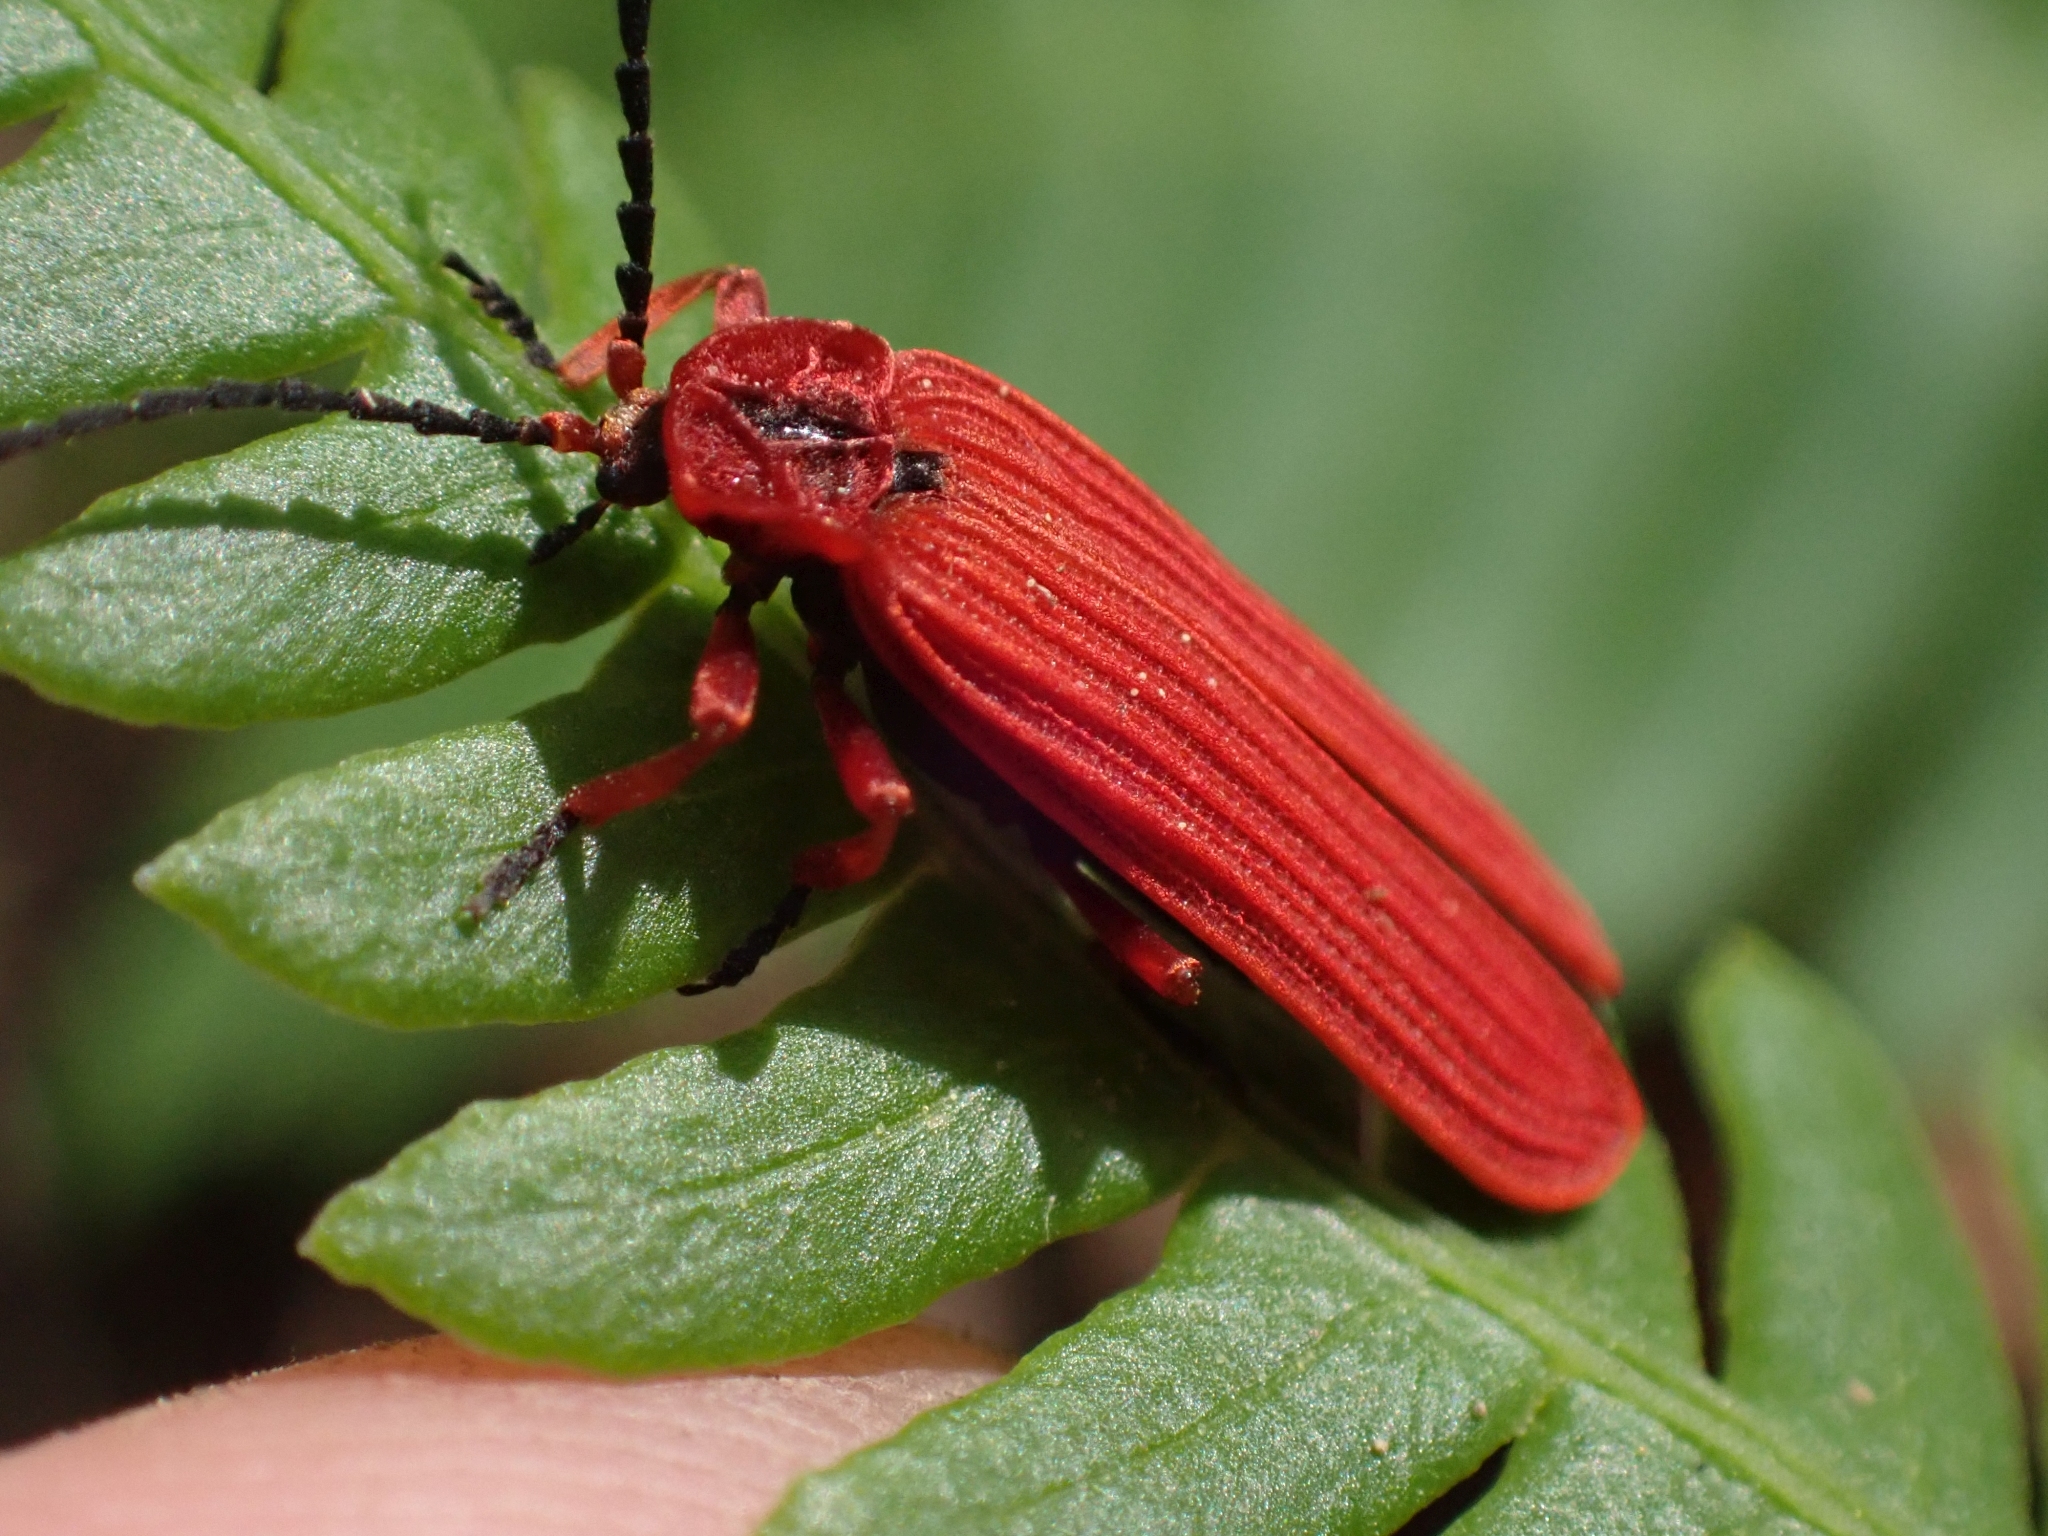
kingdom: Animalia
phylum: Arthropoda
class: Insecta
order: Coleoptera
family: Lycidae
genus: Dictyoptera
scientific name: Dictyoptera simplicipes
